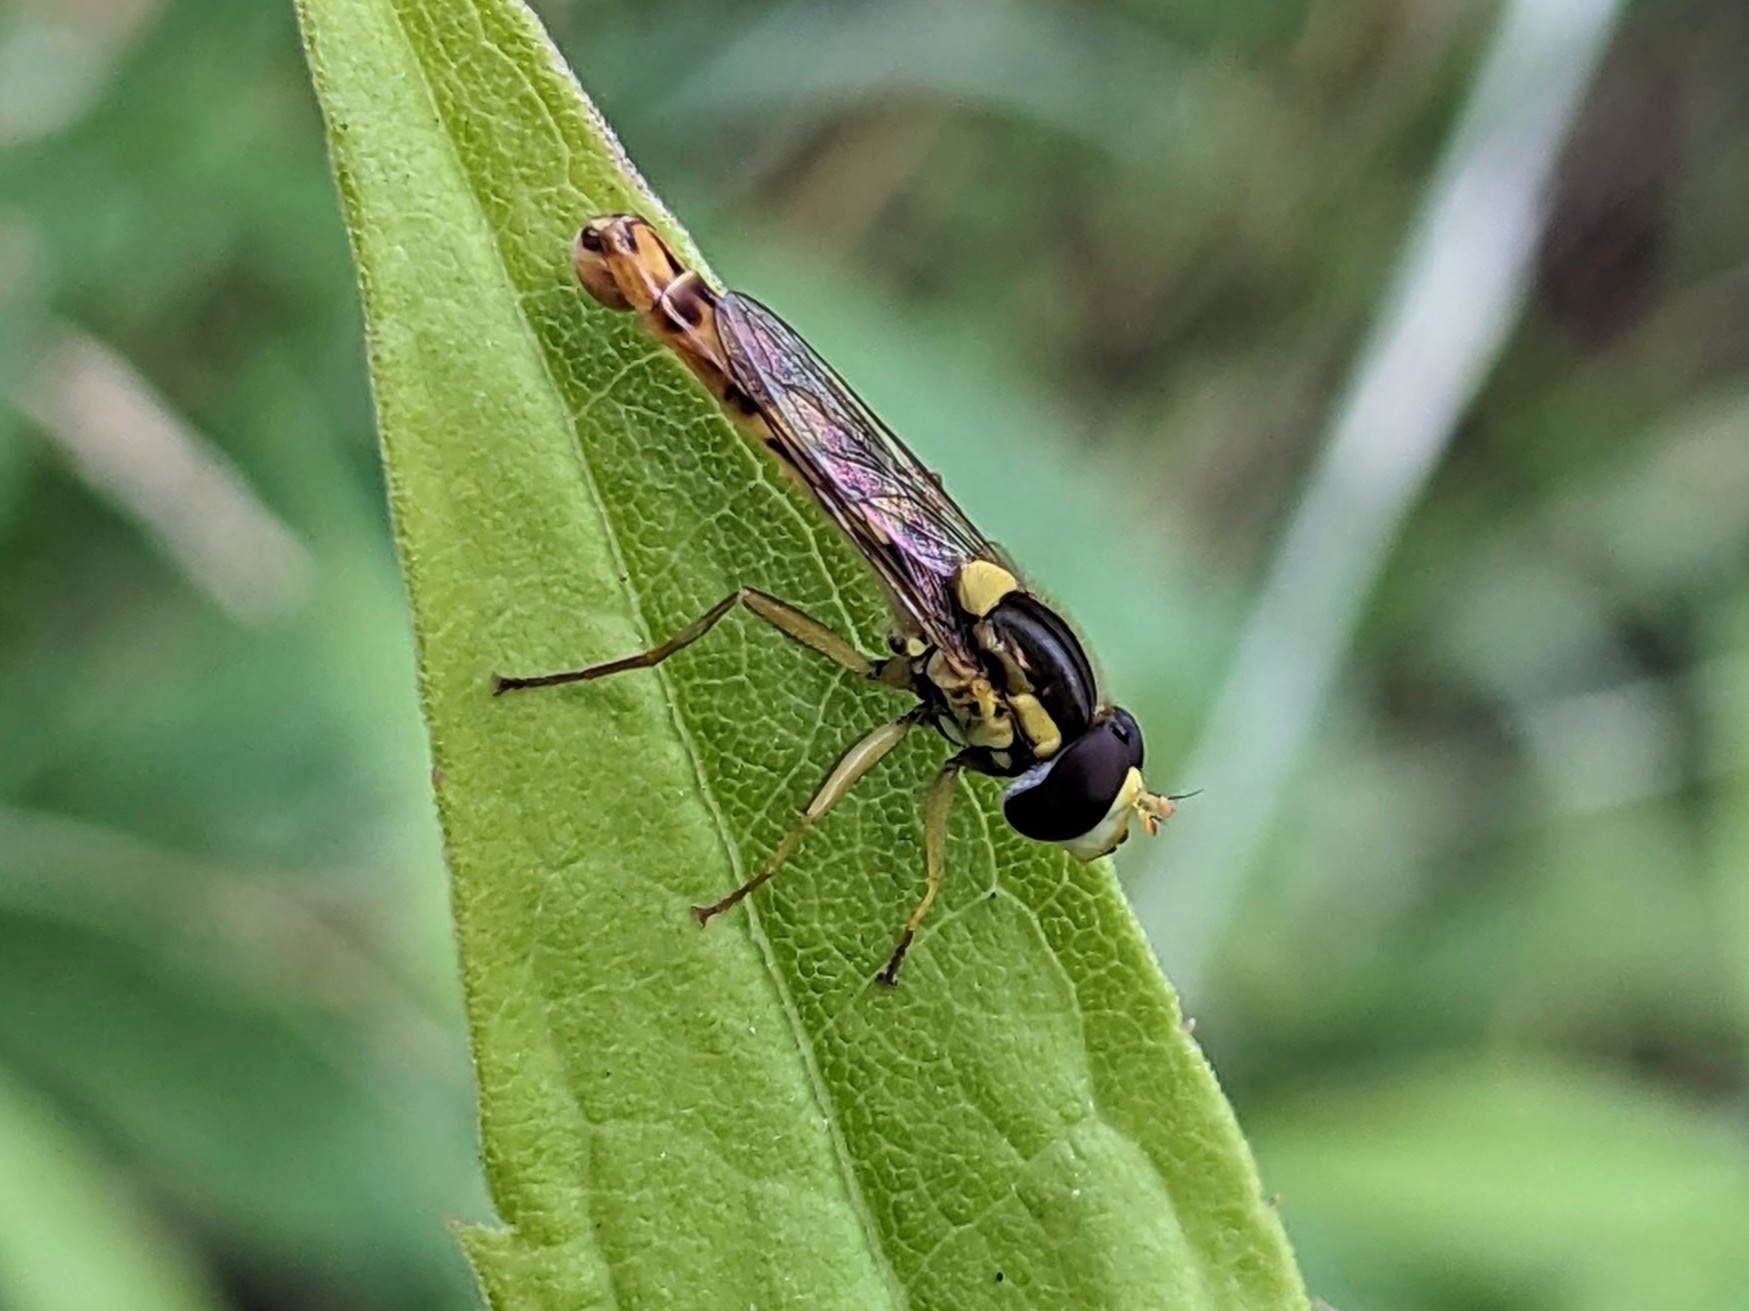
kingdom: Animalia
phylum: Arthropoda
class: Insecta
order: Diptera
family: Syrphidae
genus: Sphaerophoria
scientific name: Sphaerophoria scripta
